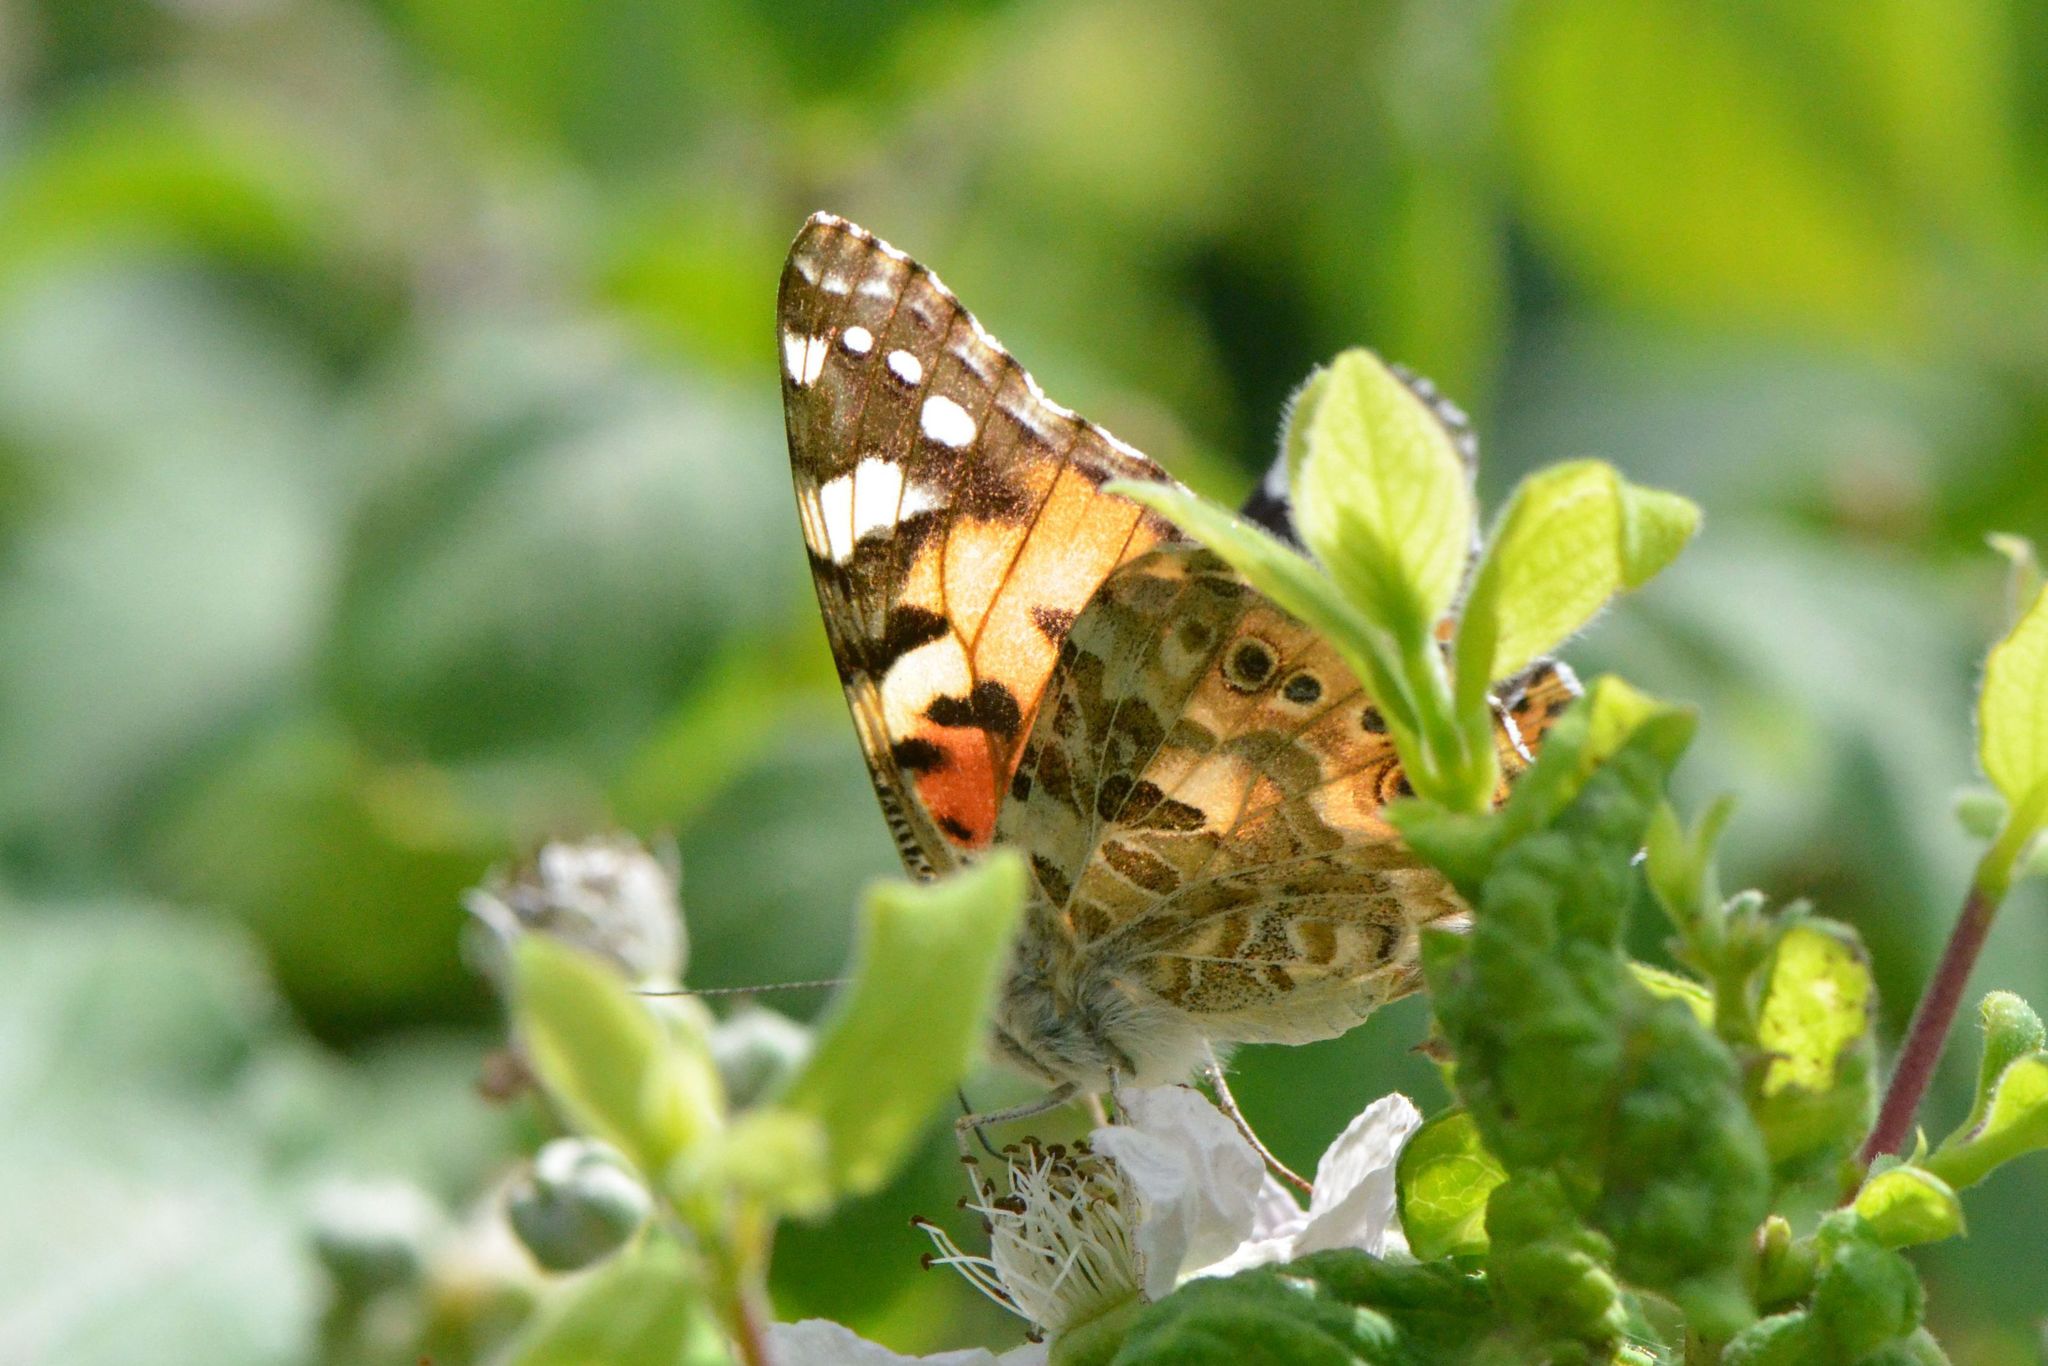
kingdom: Animalia
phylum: Arthropoda
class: Insecta
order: Lepidoptera
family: Nymphalidae
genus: Vanessa
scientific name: Vanessa cardui
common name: Painted lady
